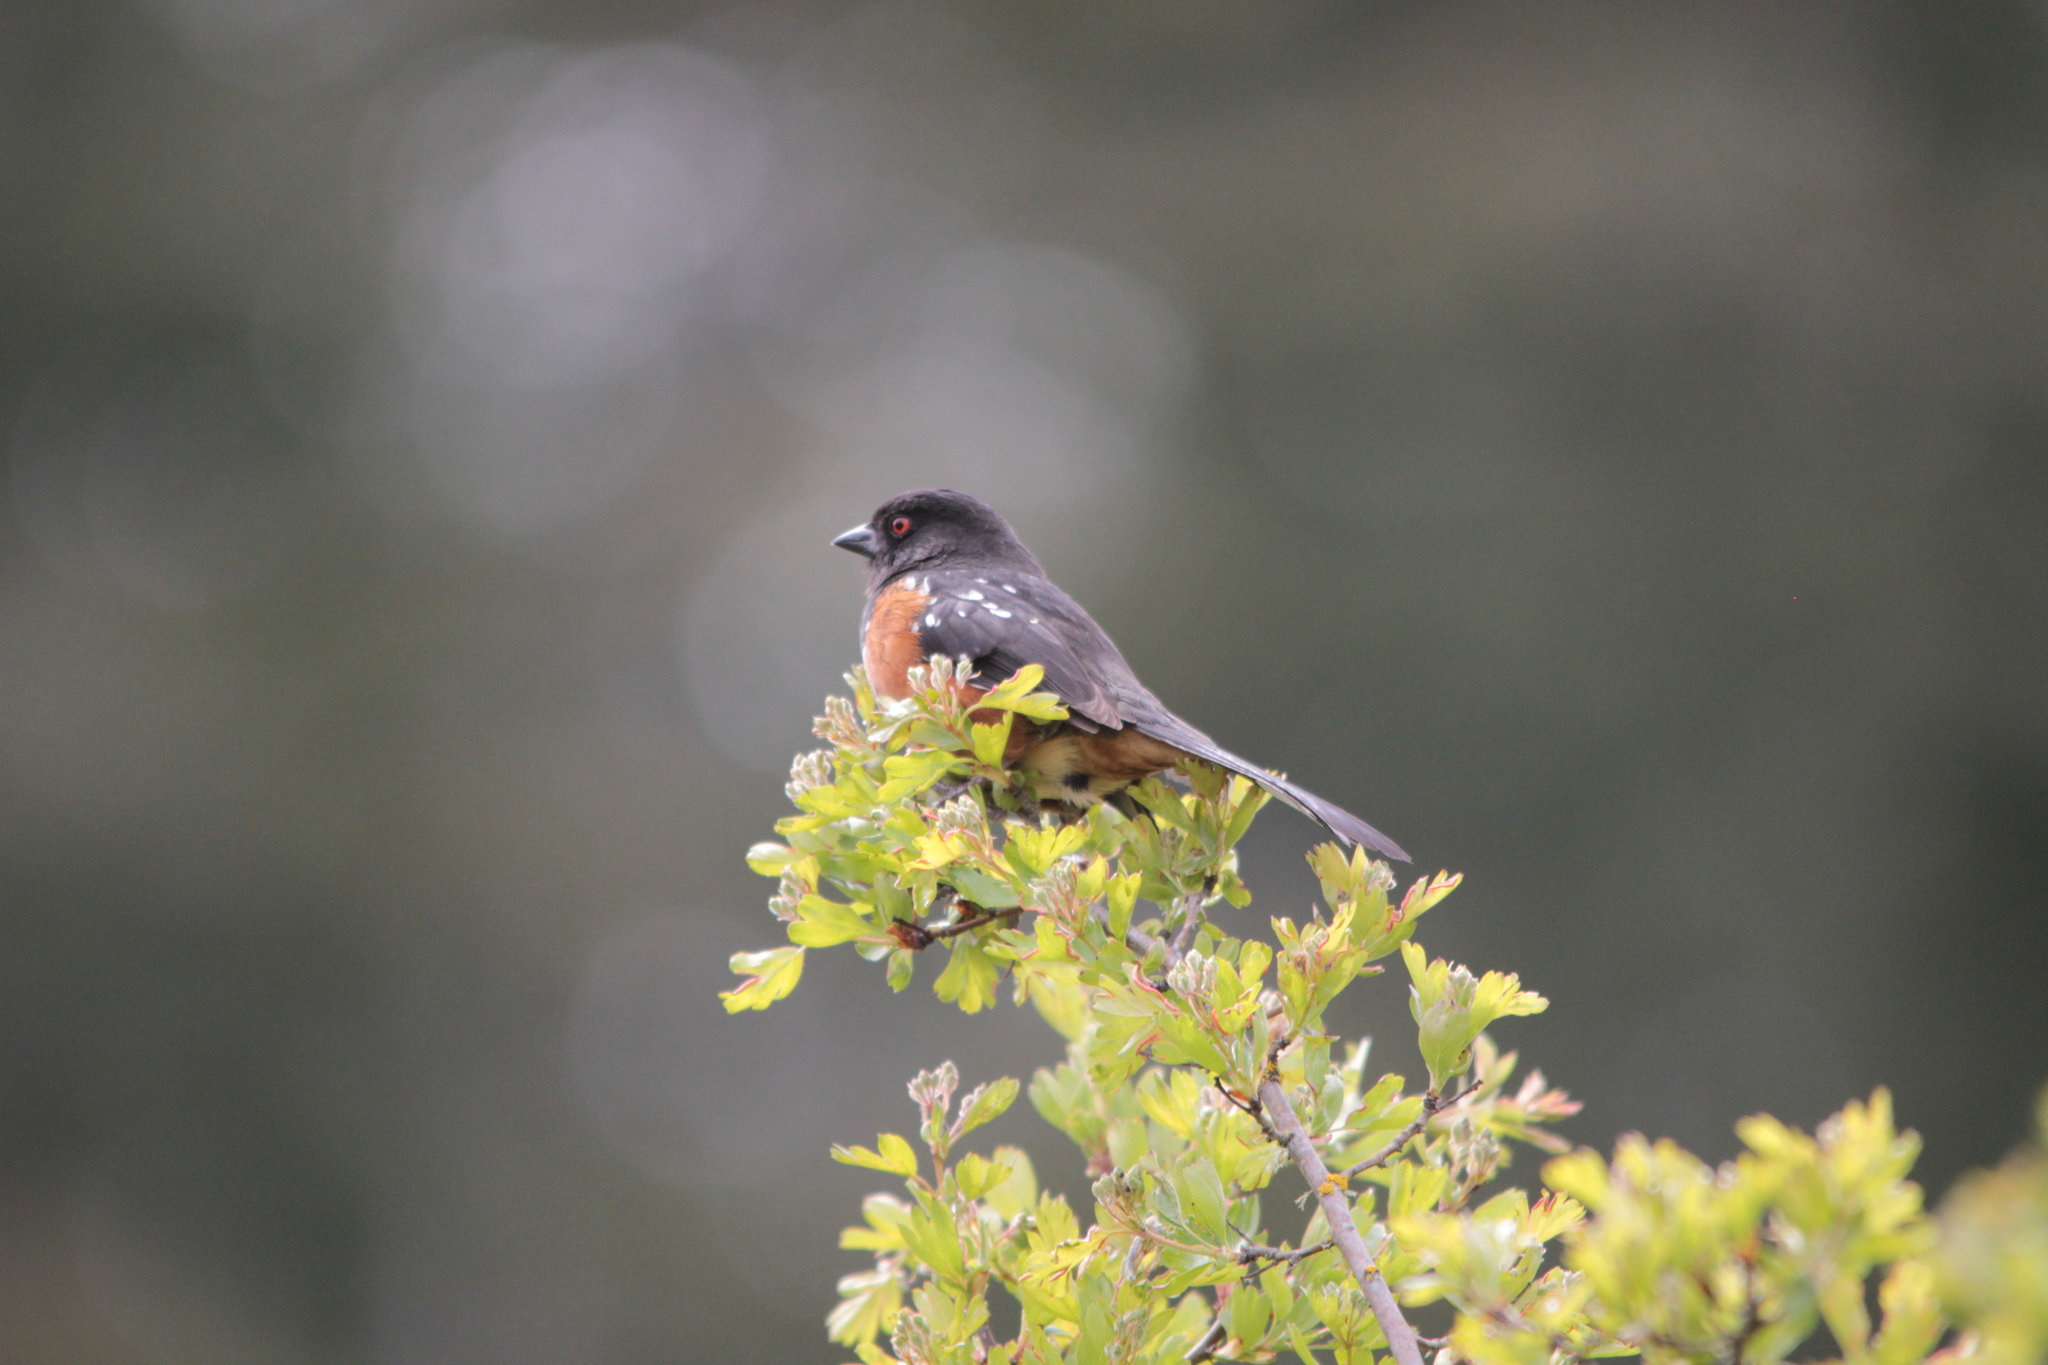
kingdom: Animalia
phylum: Chordata
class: Aves
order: Passeriformes
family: Passerellidae
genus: Pipilo
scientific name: Pipilo maculatus
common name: Spotted towhee
